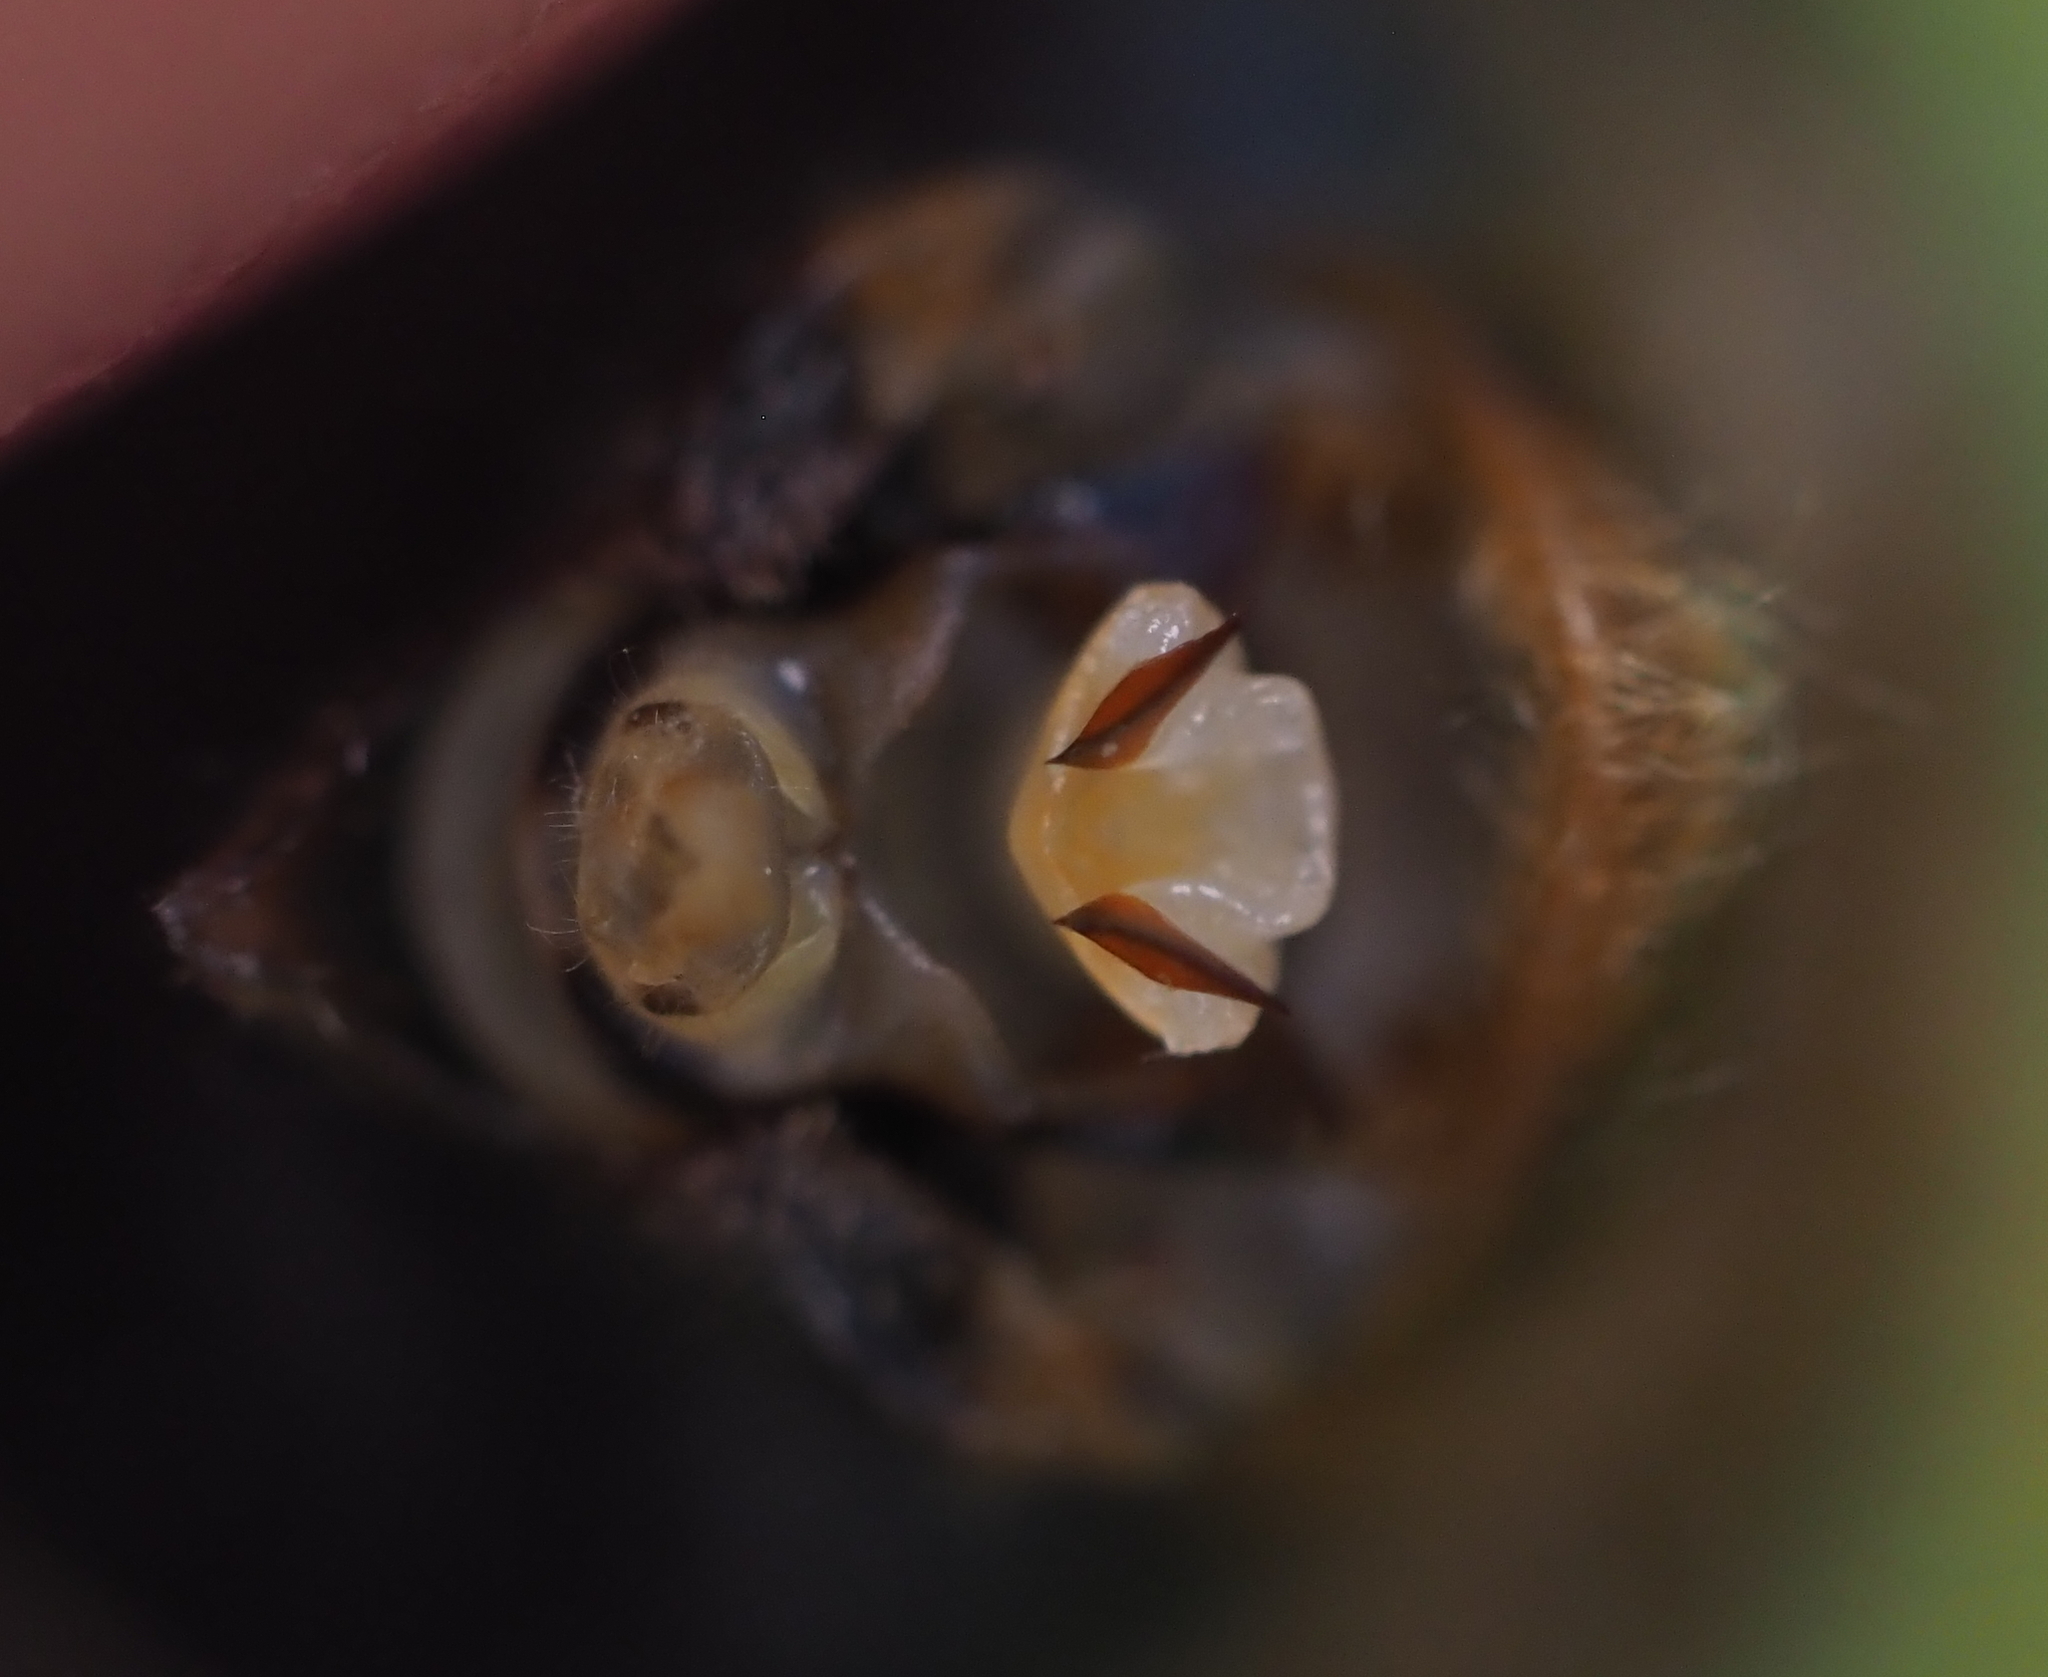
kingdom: Animalia
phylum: Arthropoda
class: Insecta
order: Hemiptera
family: Cicadidae
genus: Magicicada
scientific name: Magicicada septendecim
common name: Periodical cicada
